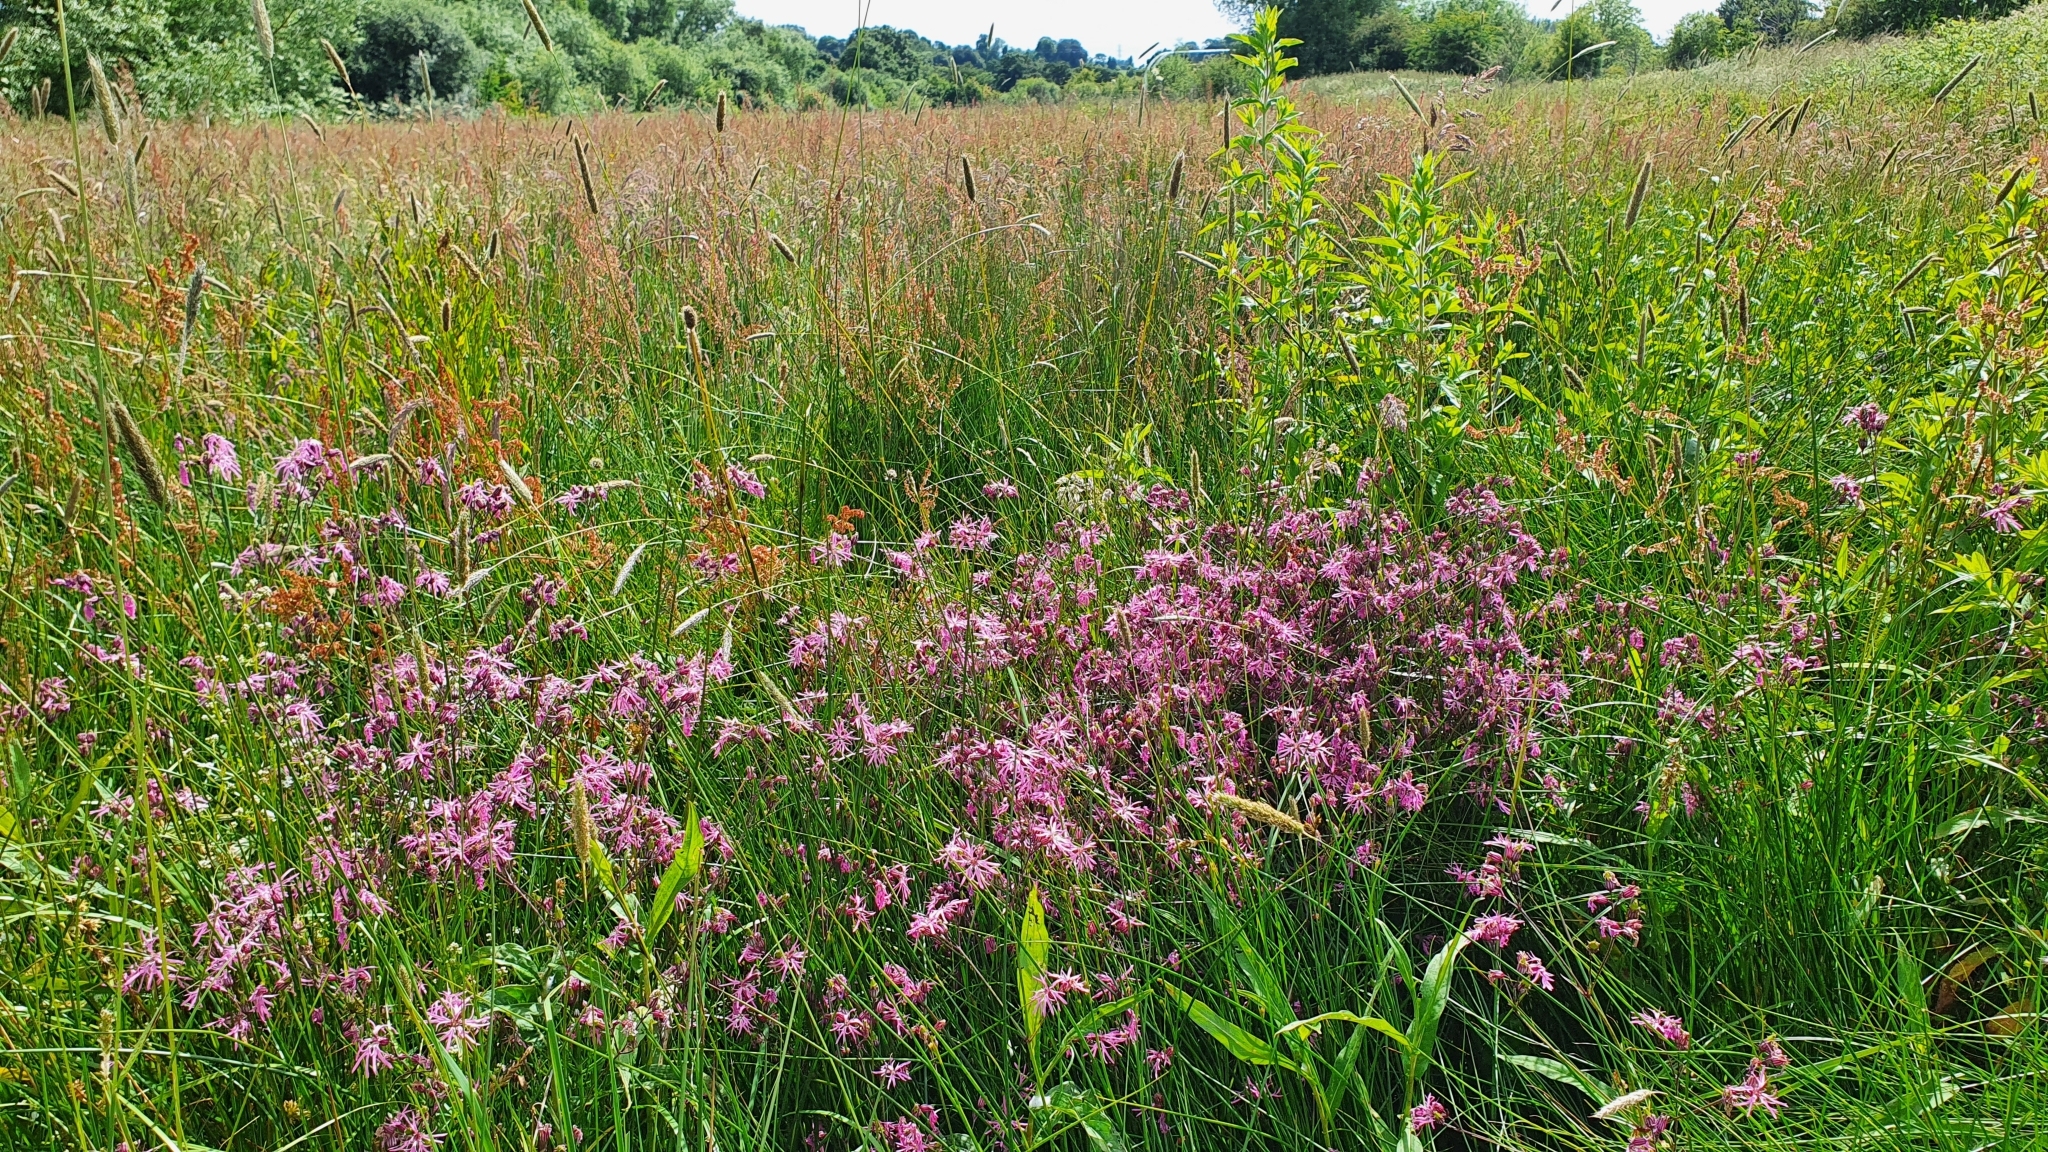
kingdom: Plantae
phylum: Tracheophyta
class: Magnoliopsida
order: Caryophyllales
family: Caryophyllaceae
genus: Silene
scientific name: Silene flos-cuculi
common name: Ragged-robin
